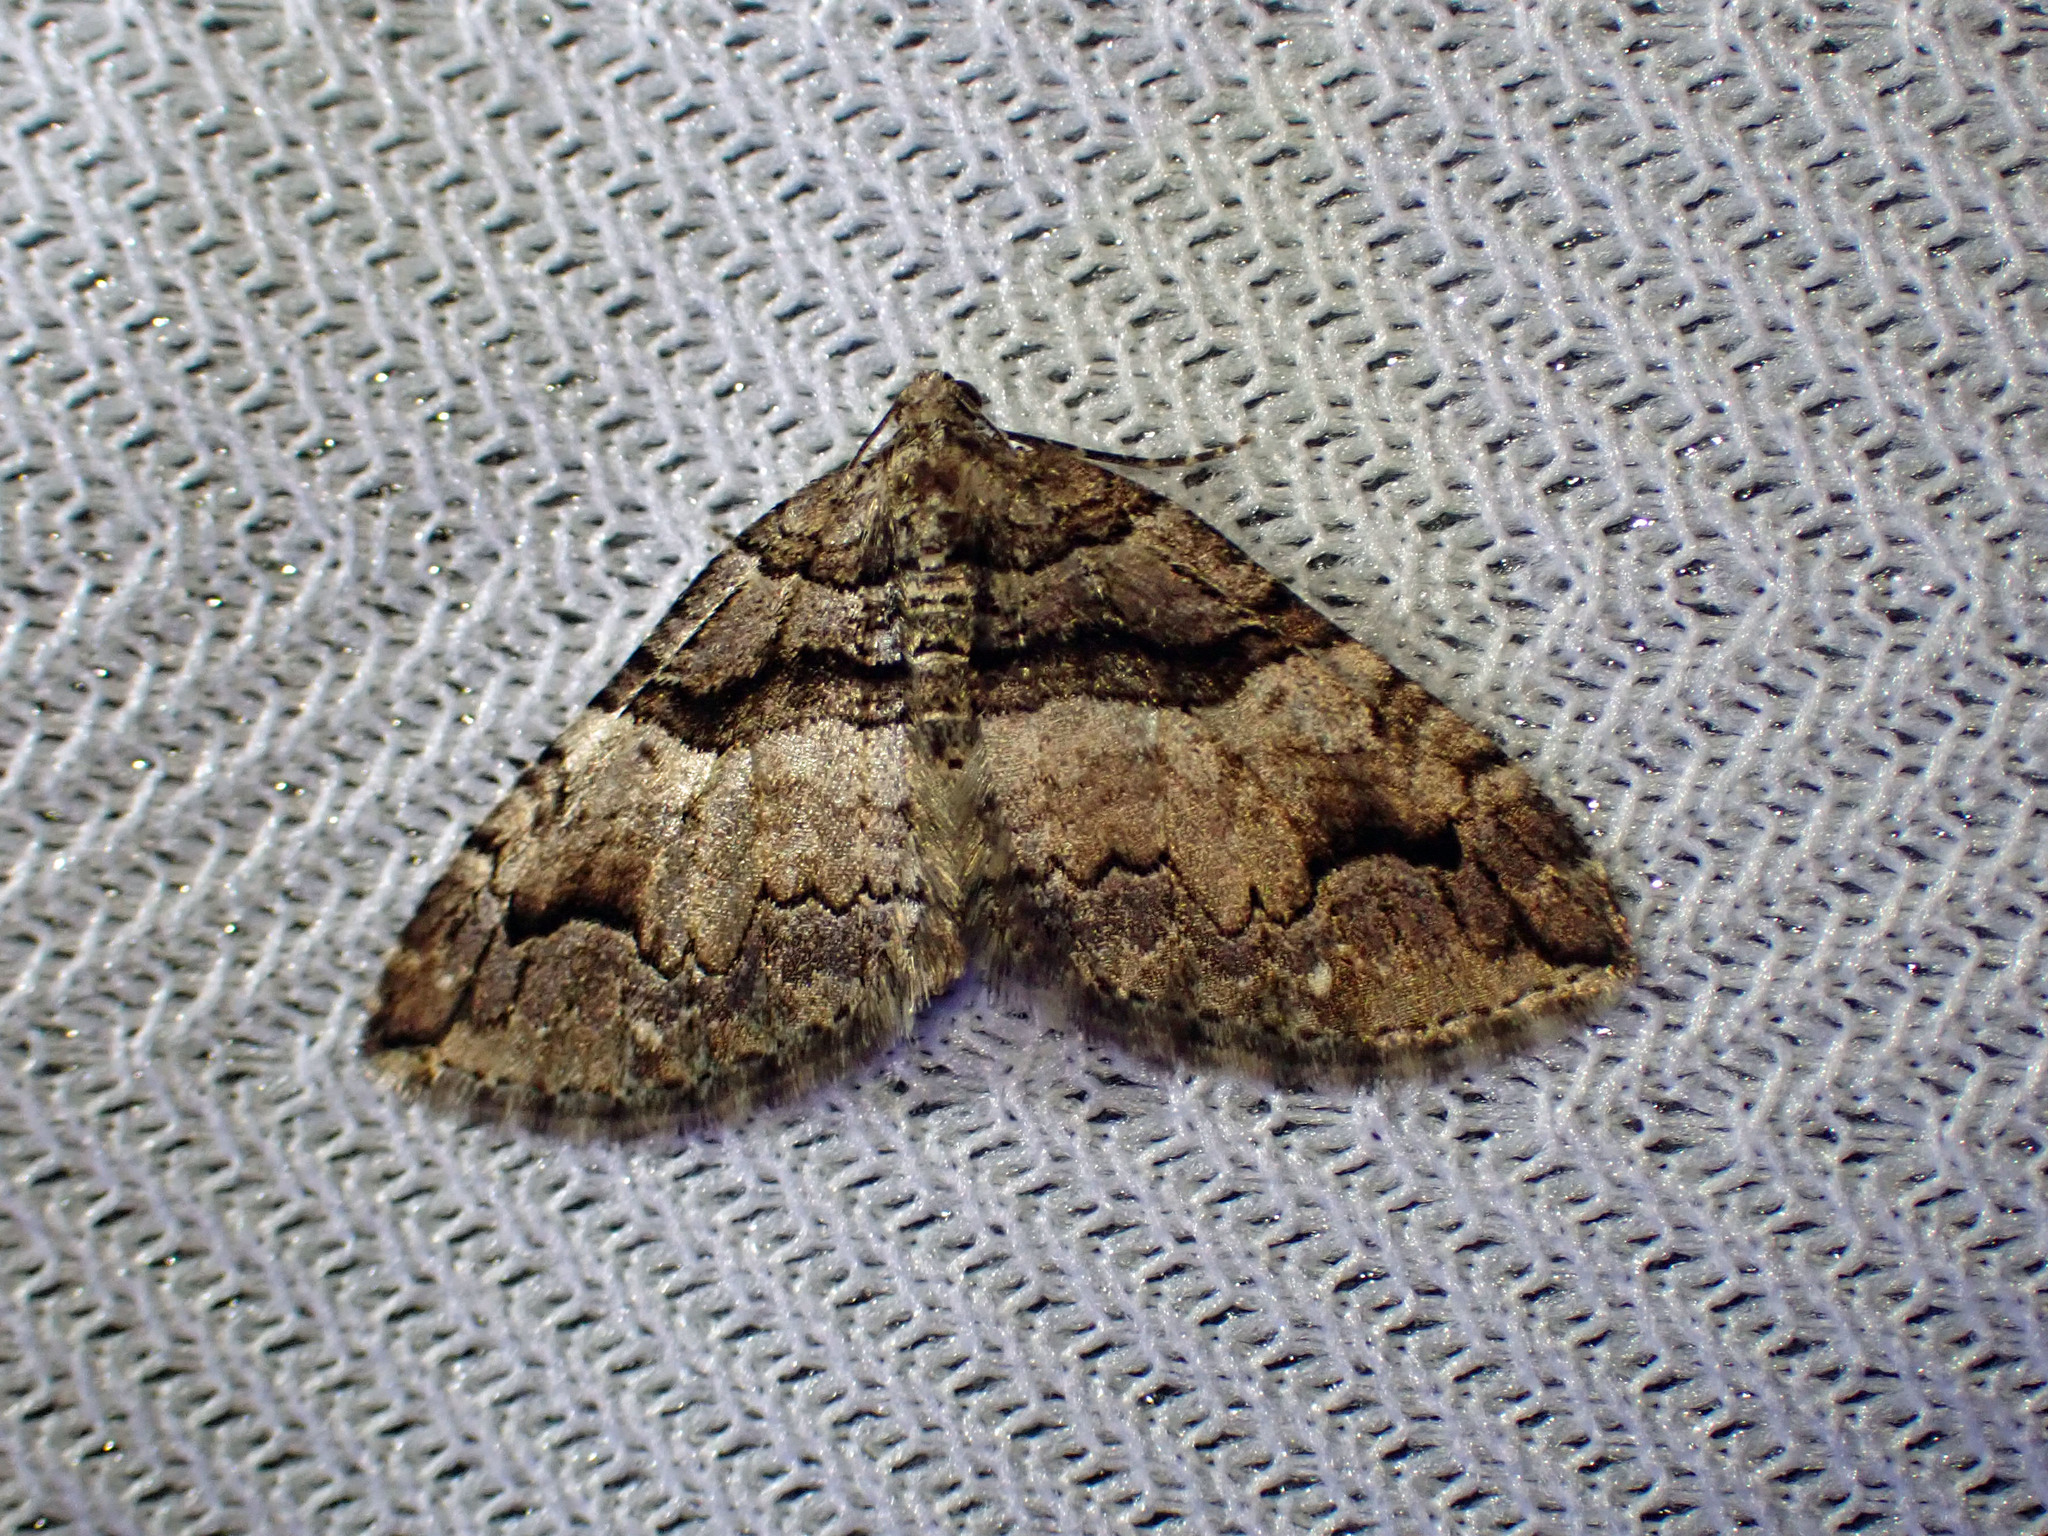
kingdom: Animalia
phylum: Arthropoda
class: Insecta
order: Lepidoptera
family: Geometridae
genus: Anticlea
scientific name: Anticlea vasiliata
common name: Variable carpet
